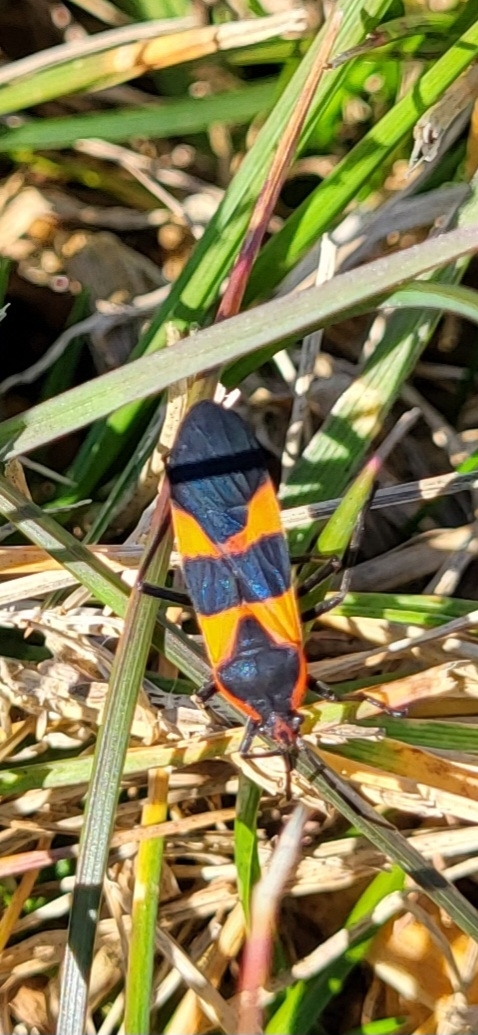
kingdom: Animalia
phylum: Arthropoda
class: Insecta
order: Hemiptera
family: Lygaeidae
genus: Oncopeltus
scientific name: Oncopeltus fasciatus
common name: Large milkweed bug
